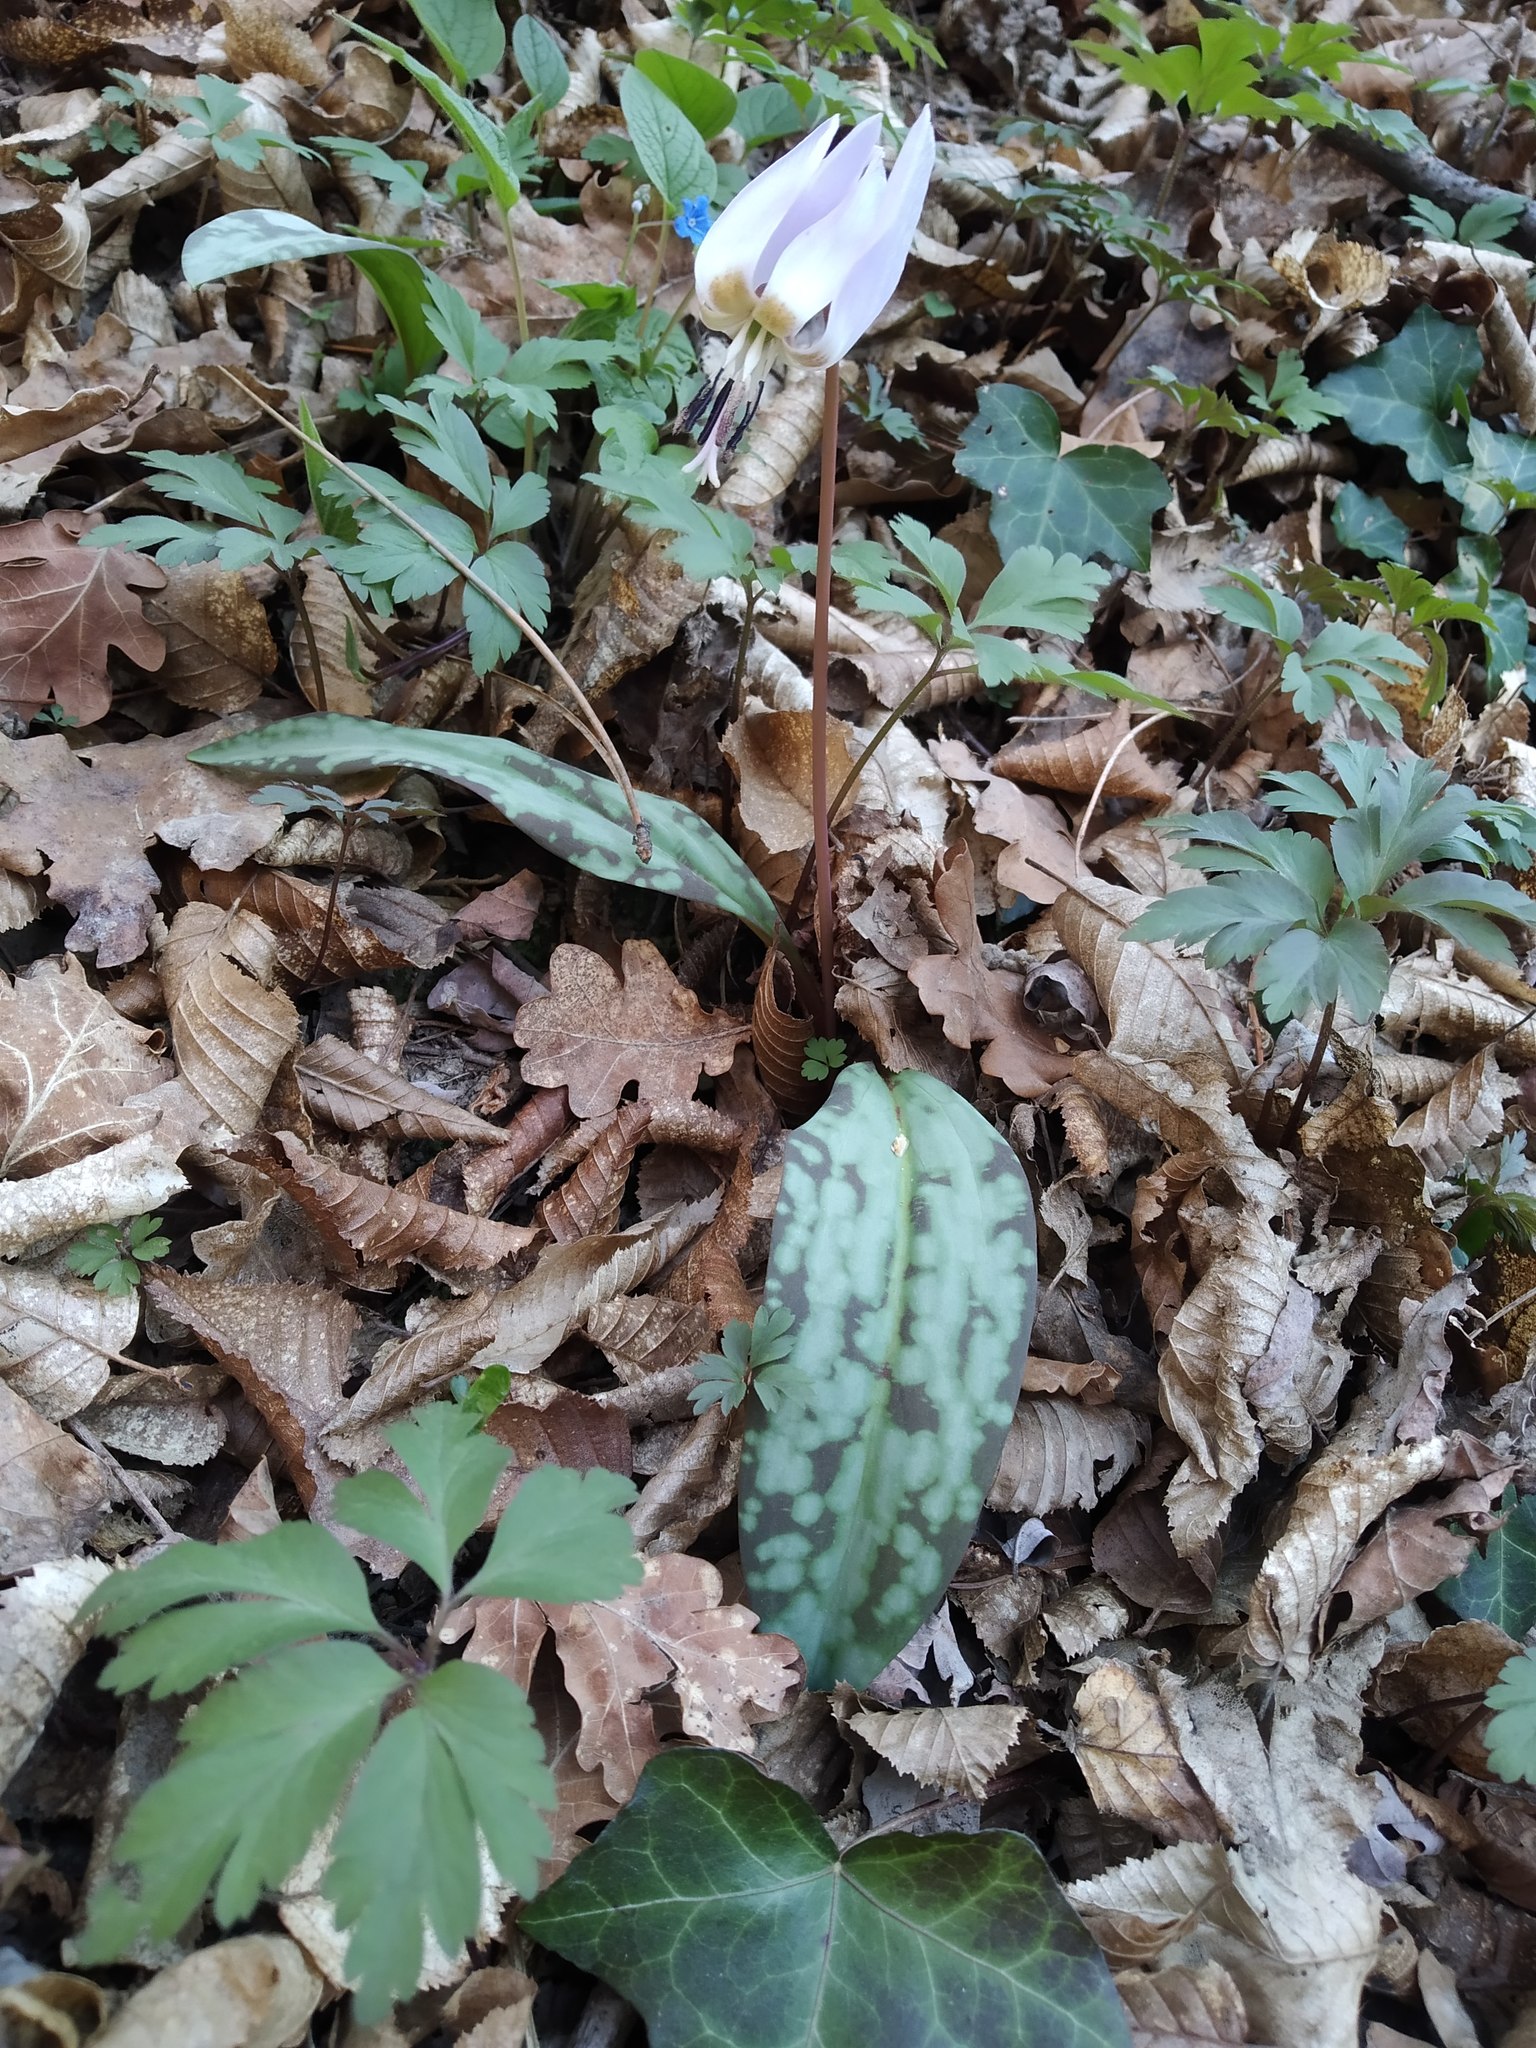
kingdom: Plantae
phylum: Tracheophyta
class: Liliopsida
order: Liliales
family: Liliaceae
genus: Erythronium
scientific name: Erythronium dens-canis
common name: Dog's-tooth-violet
